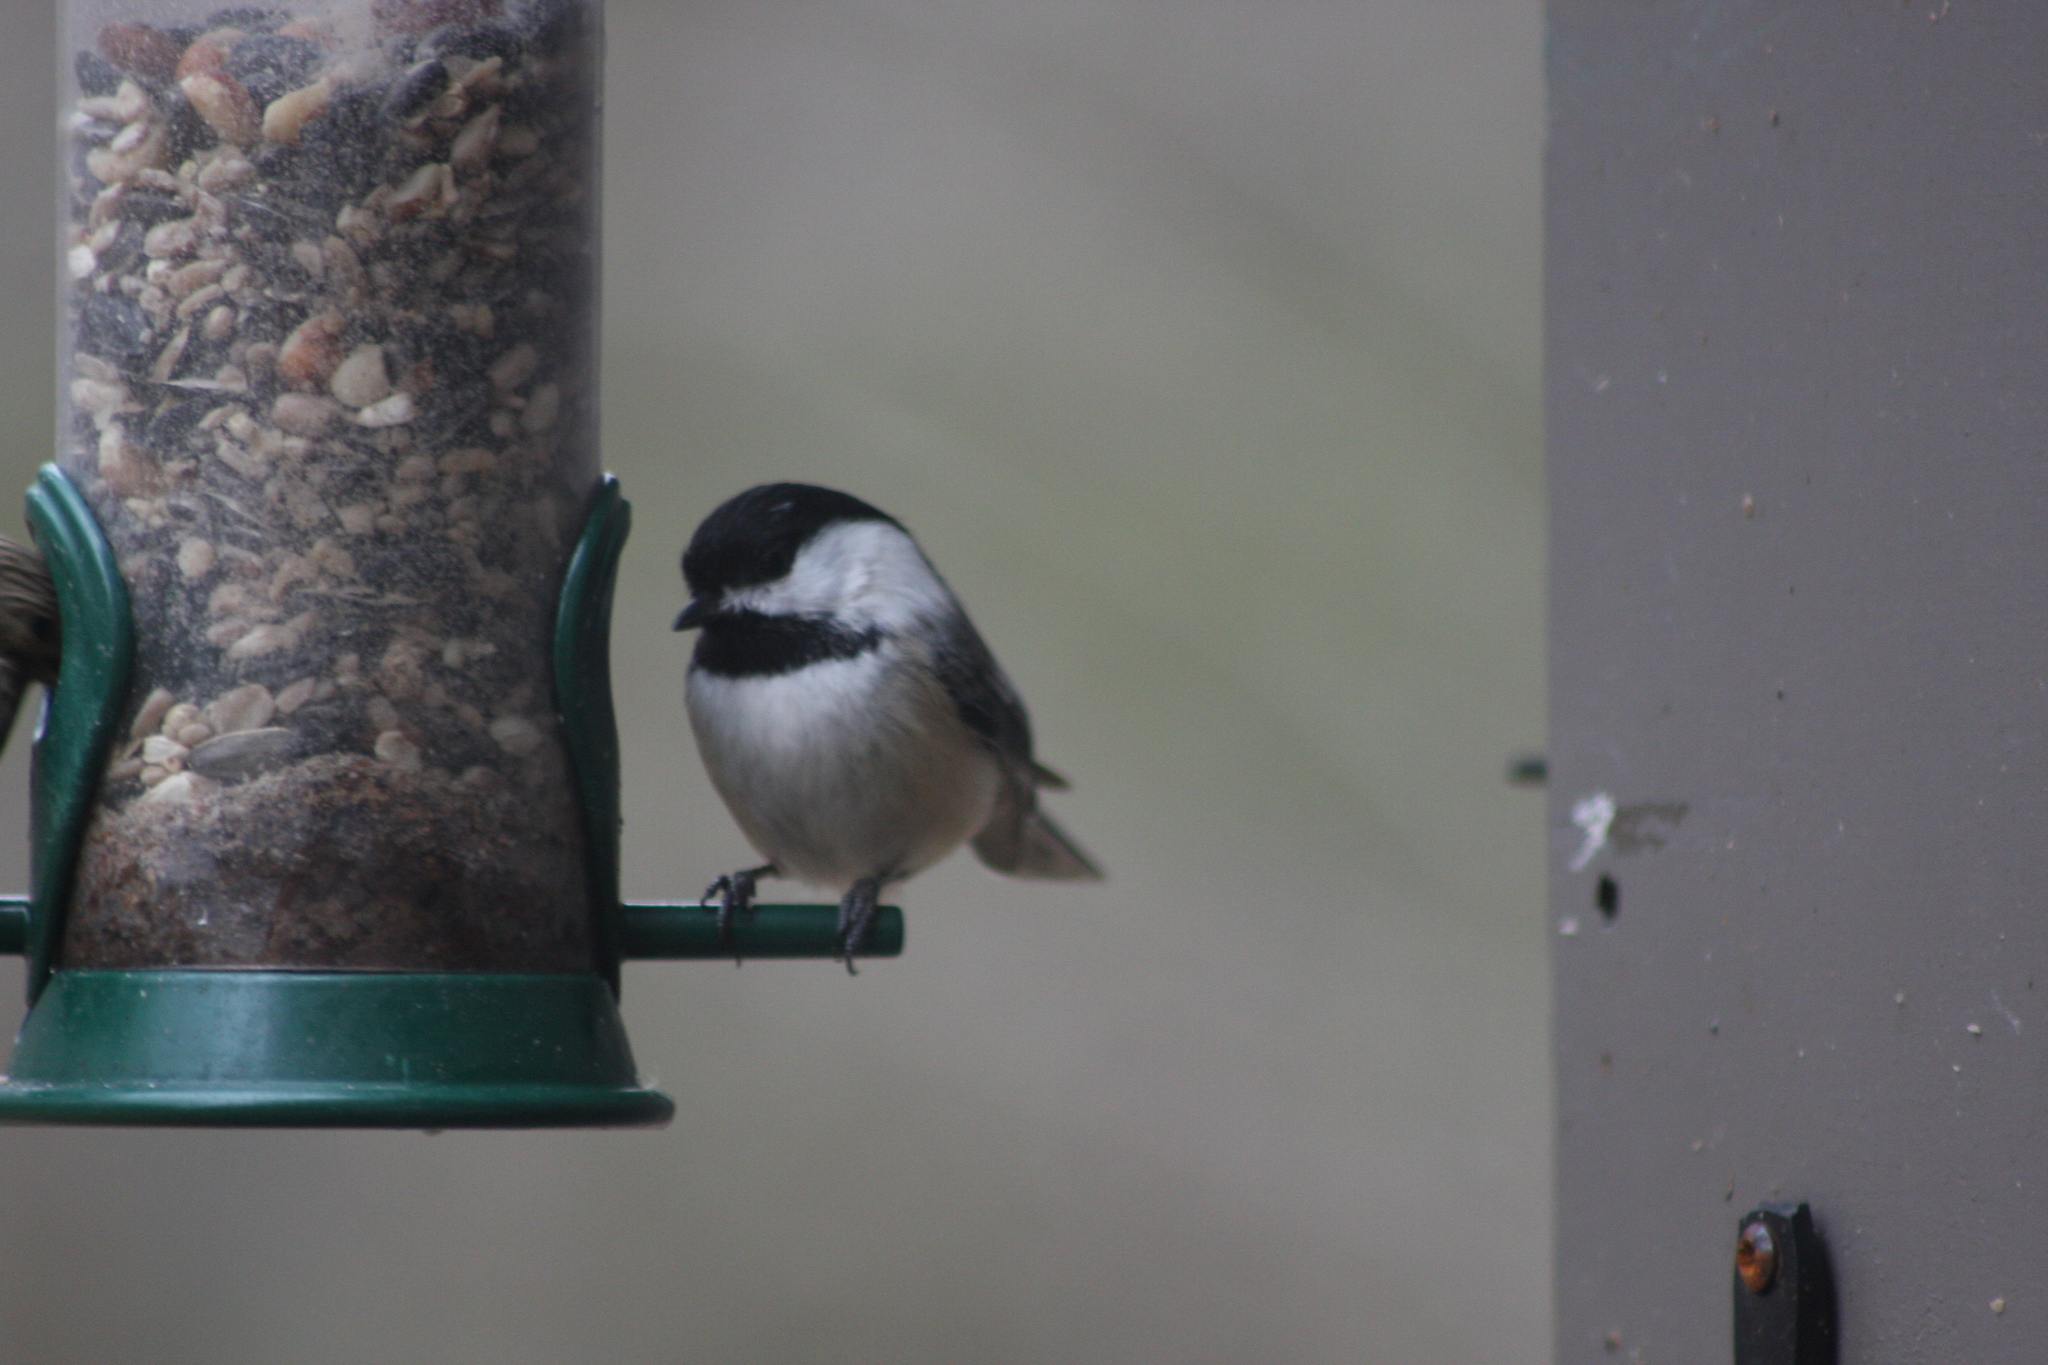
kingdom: Animalia
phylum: Chordata
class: Aves
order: Passeriformes
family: Paridae
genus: Poecile
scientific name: Poecile atricapillus
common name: Black-capped chickadee
